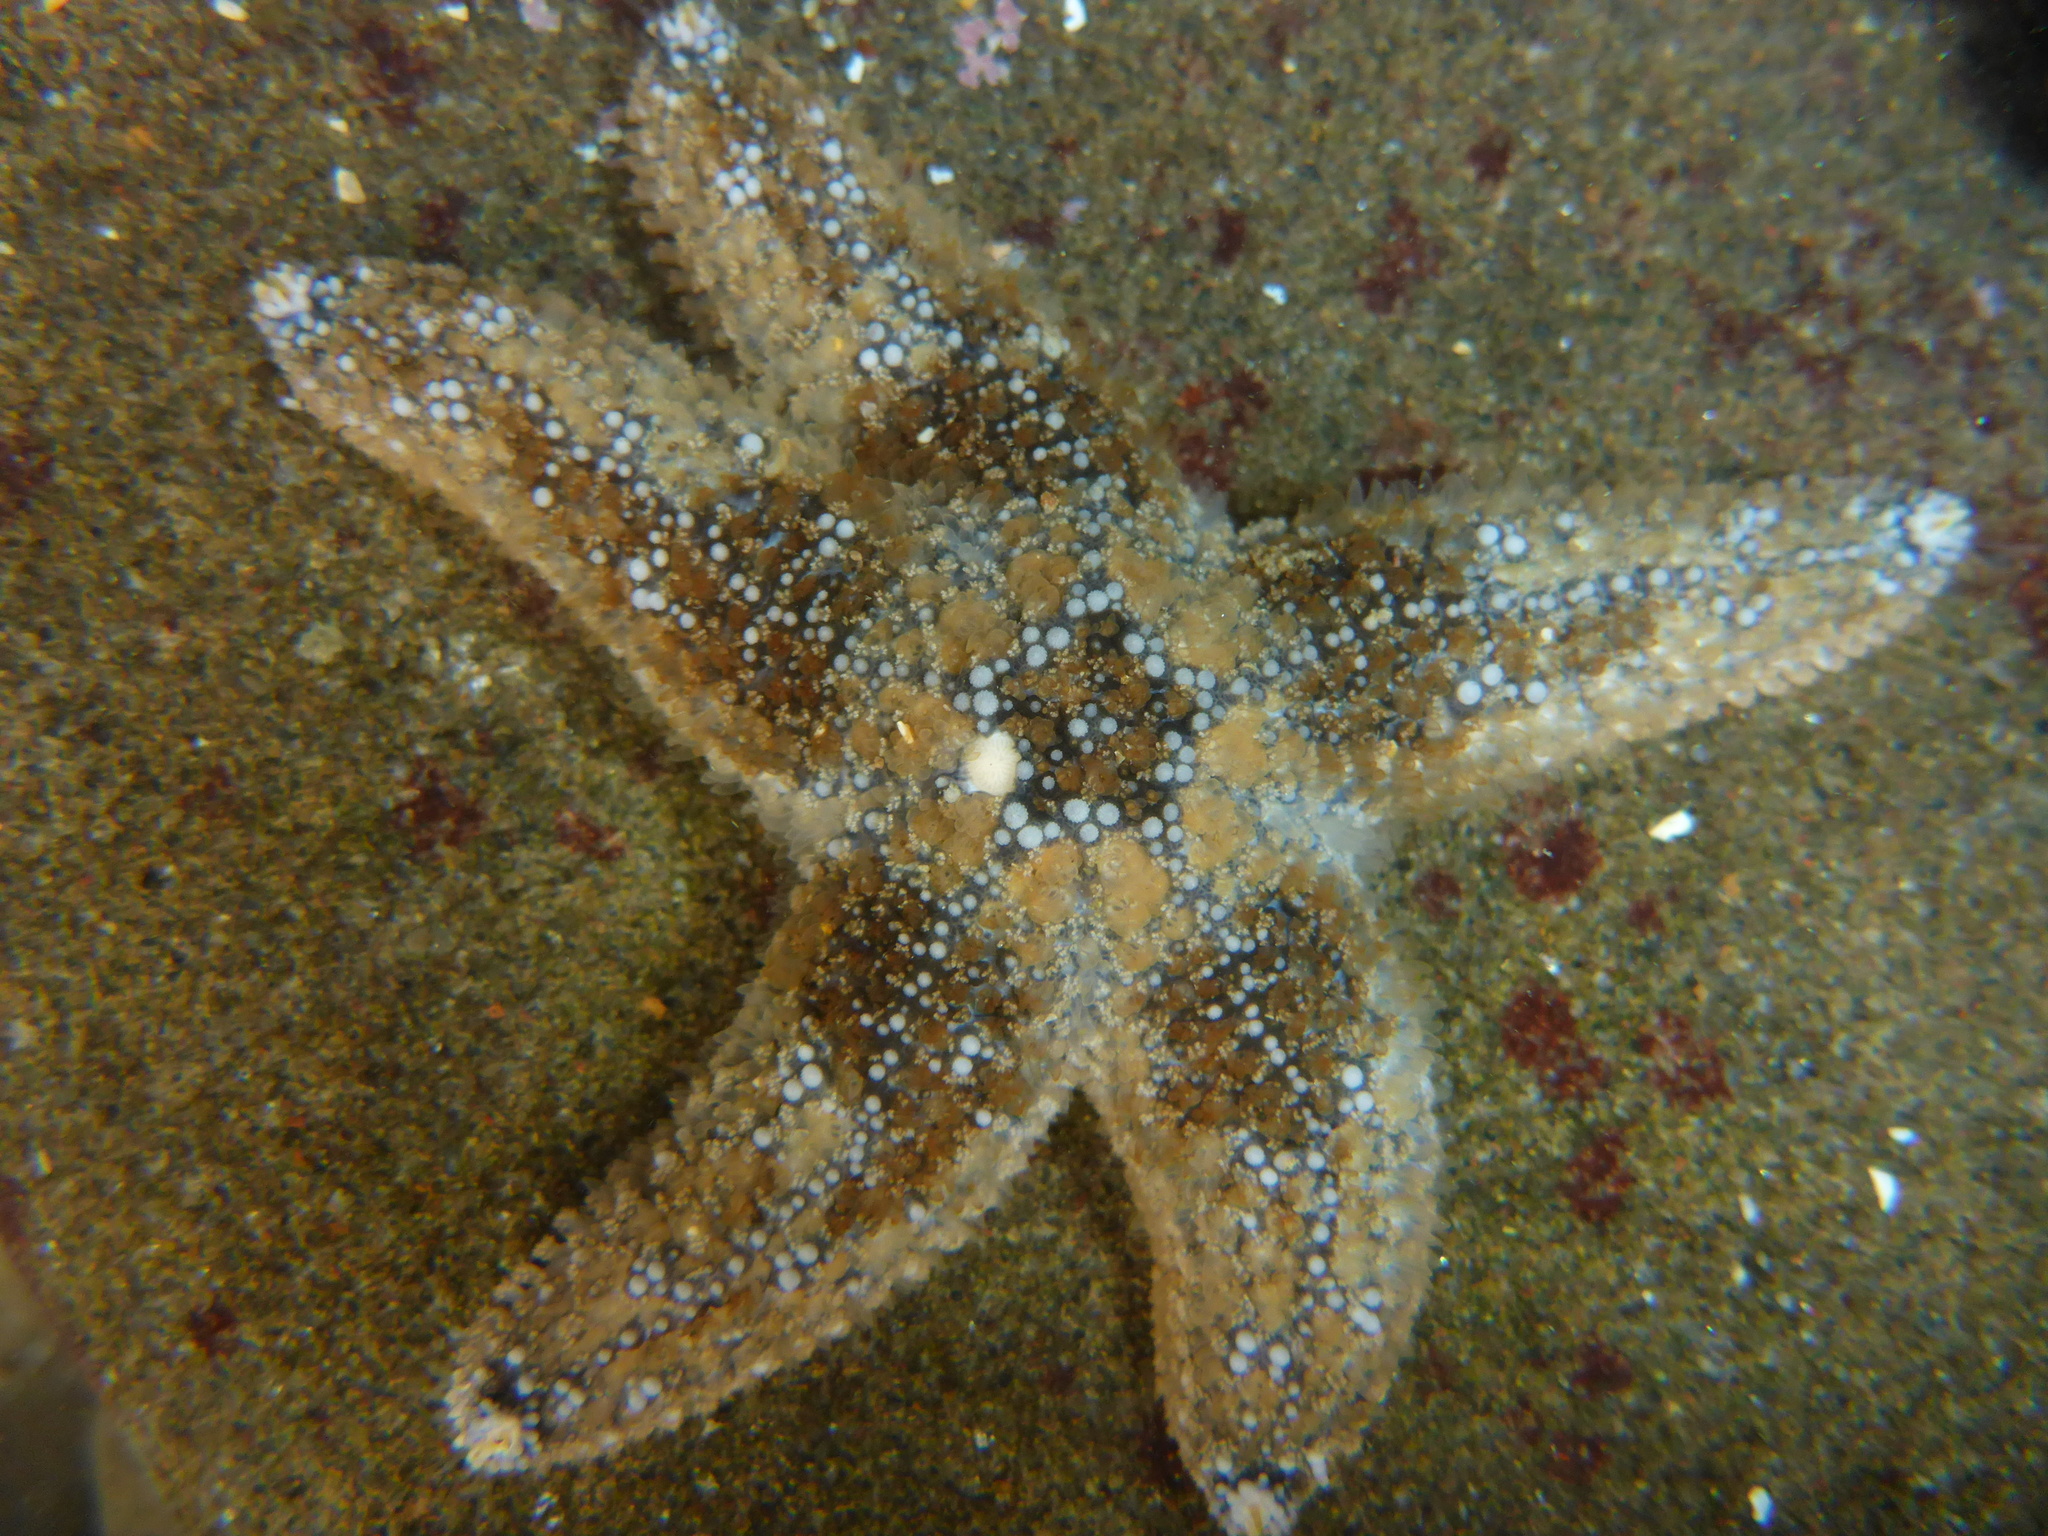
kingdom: Animalia
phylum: Echinodermata
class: Asteroidea
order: Forcipulatida
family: Asteriidae
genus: Pisaster
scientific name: Pisaster ochraceus
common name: Ochre stars
